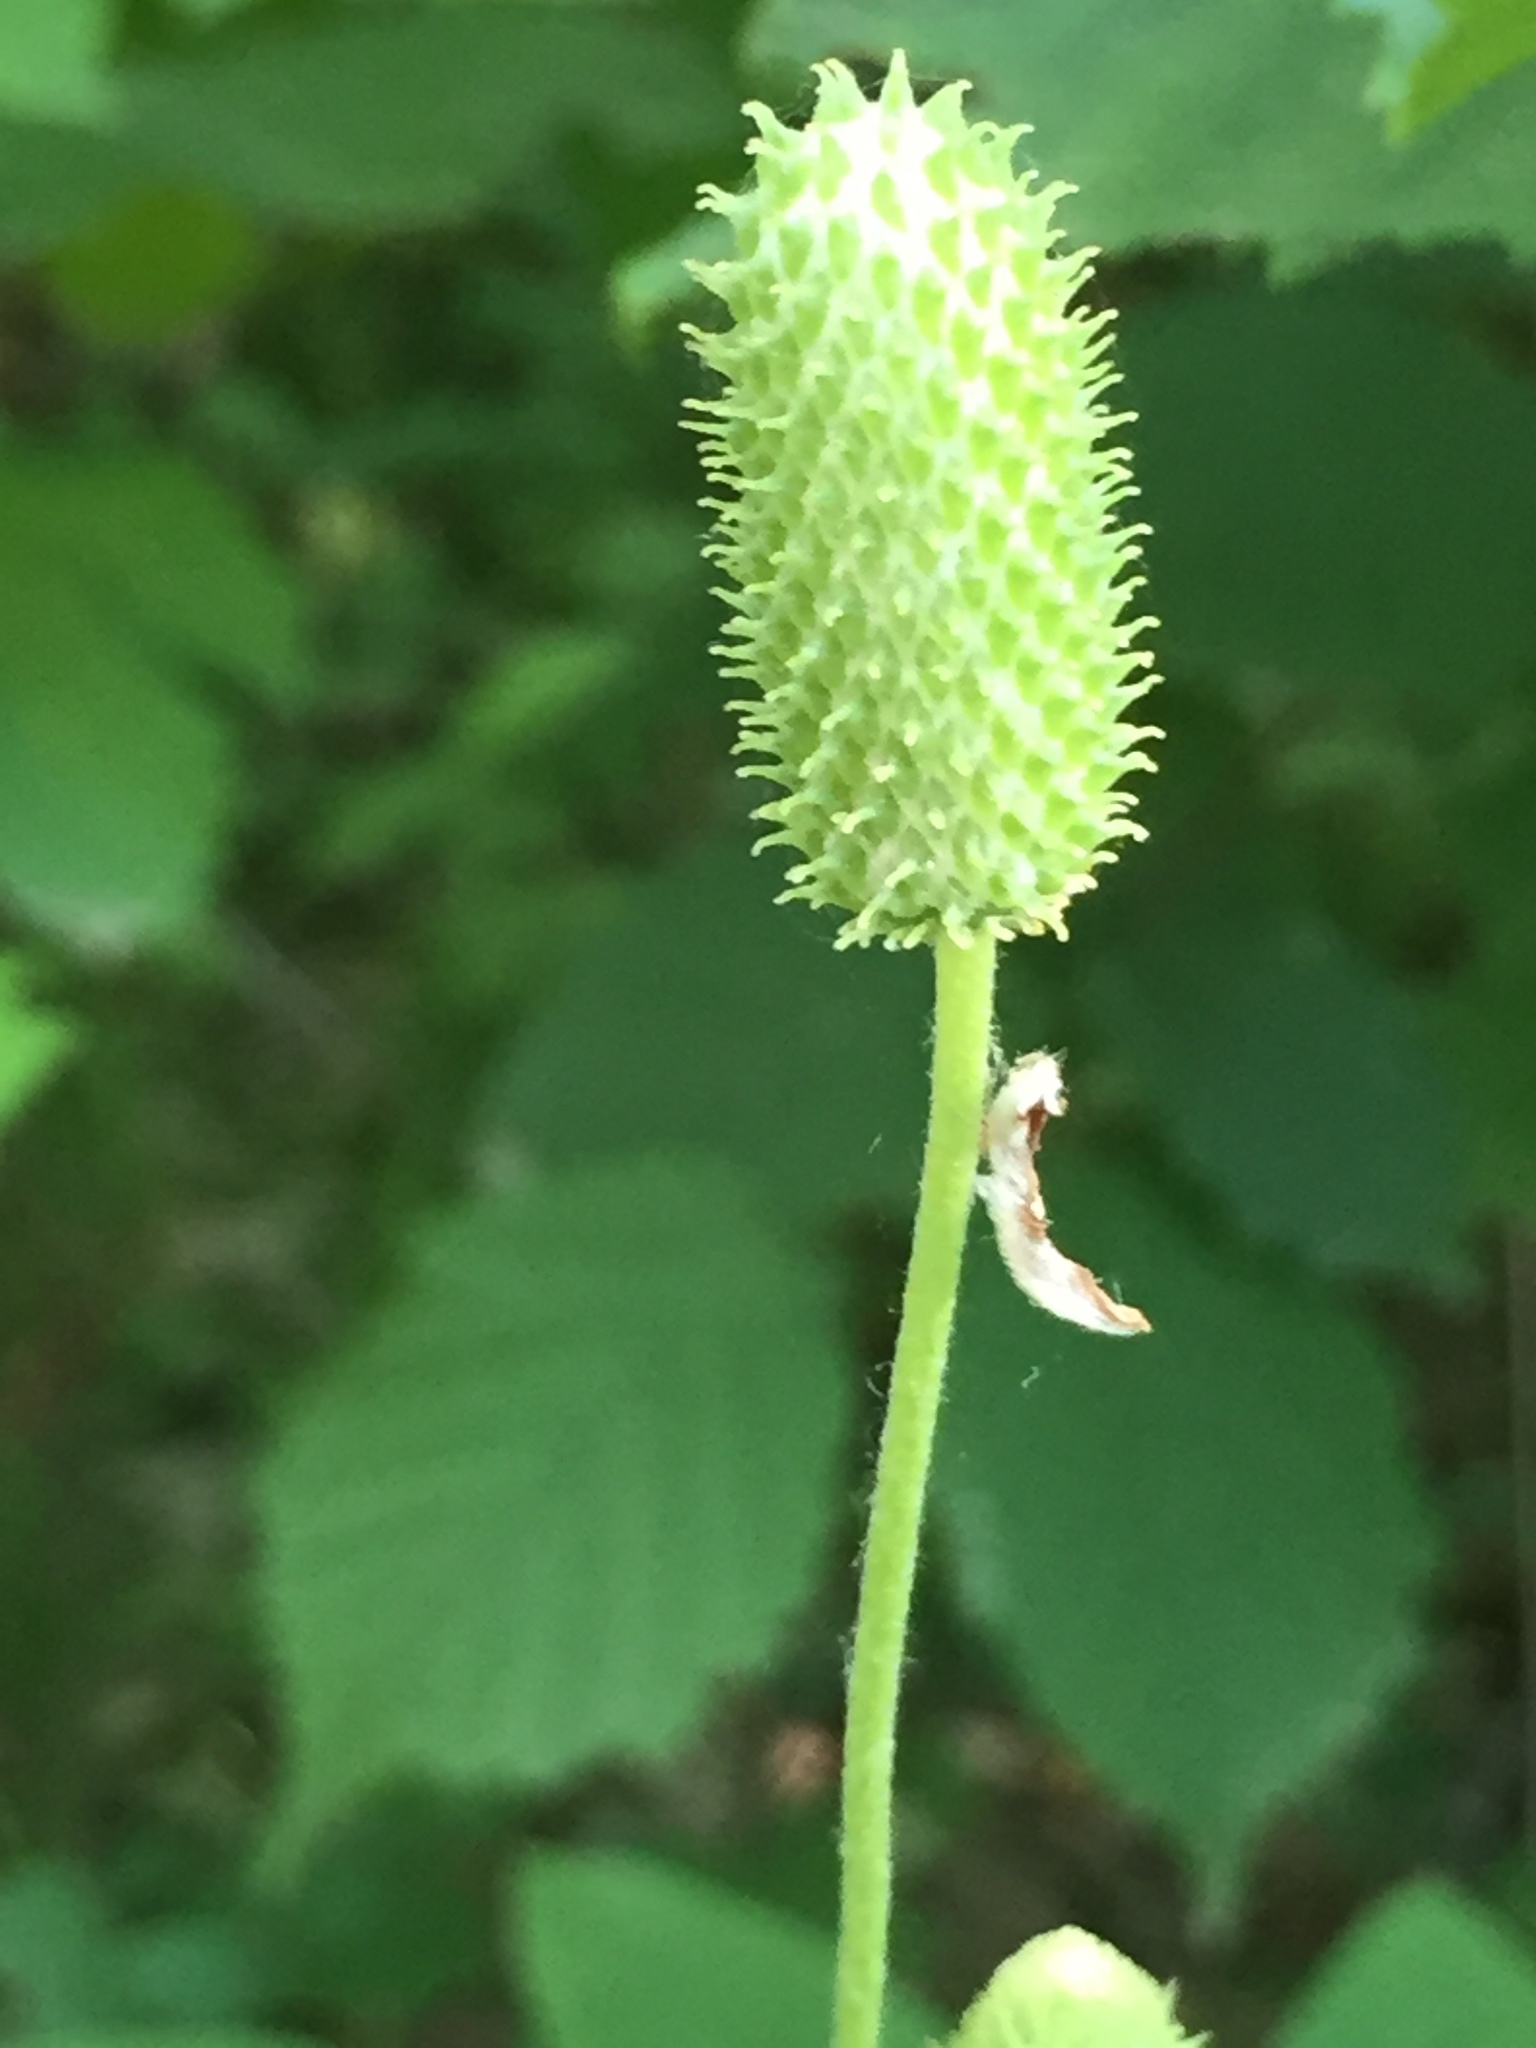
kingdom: Plantae
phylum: Tracheophyta
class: Magnoliopsida
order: Ranunculales
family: Ranunculaceae
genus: Anemone
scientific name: Anemone virginiana
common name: Tall anemone
